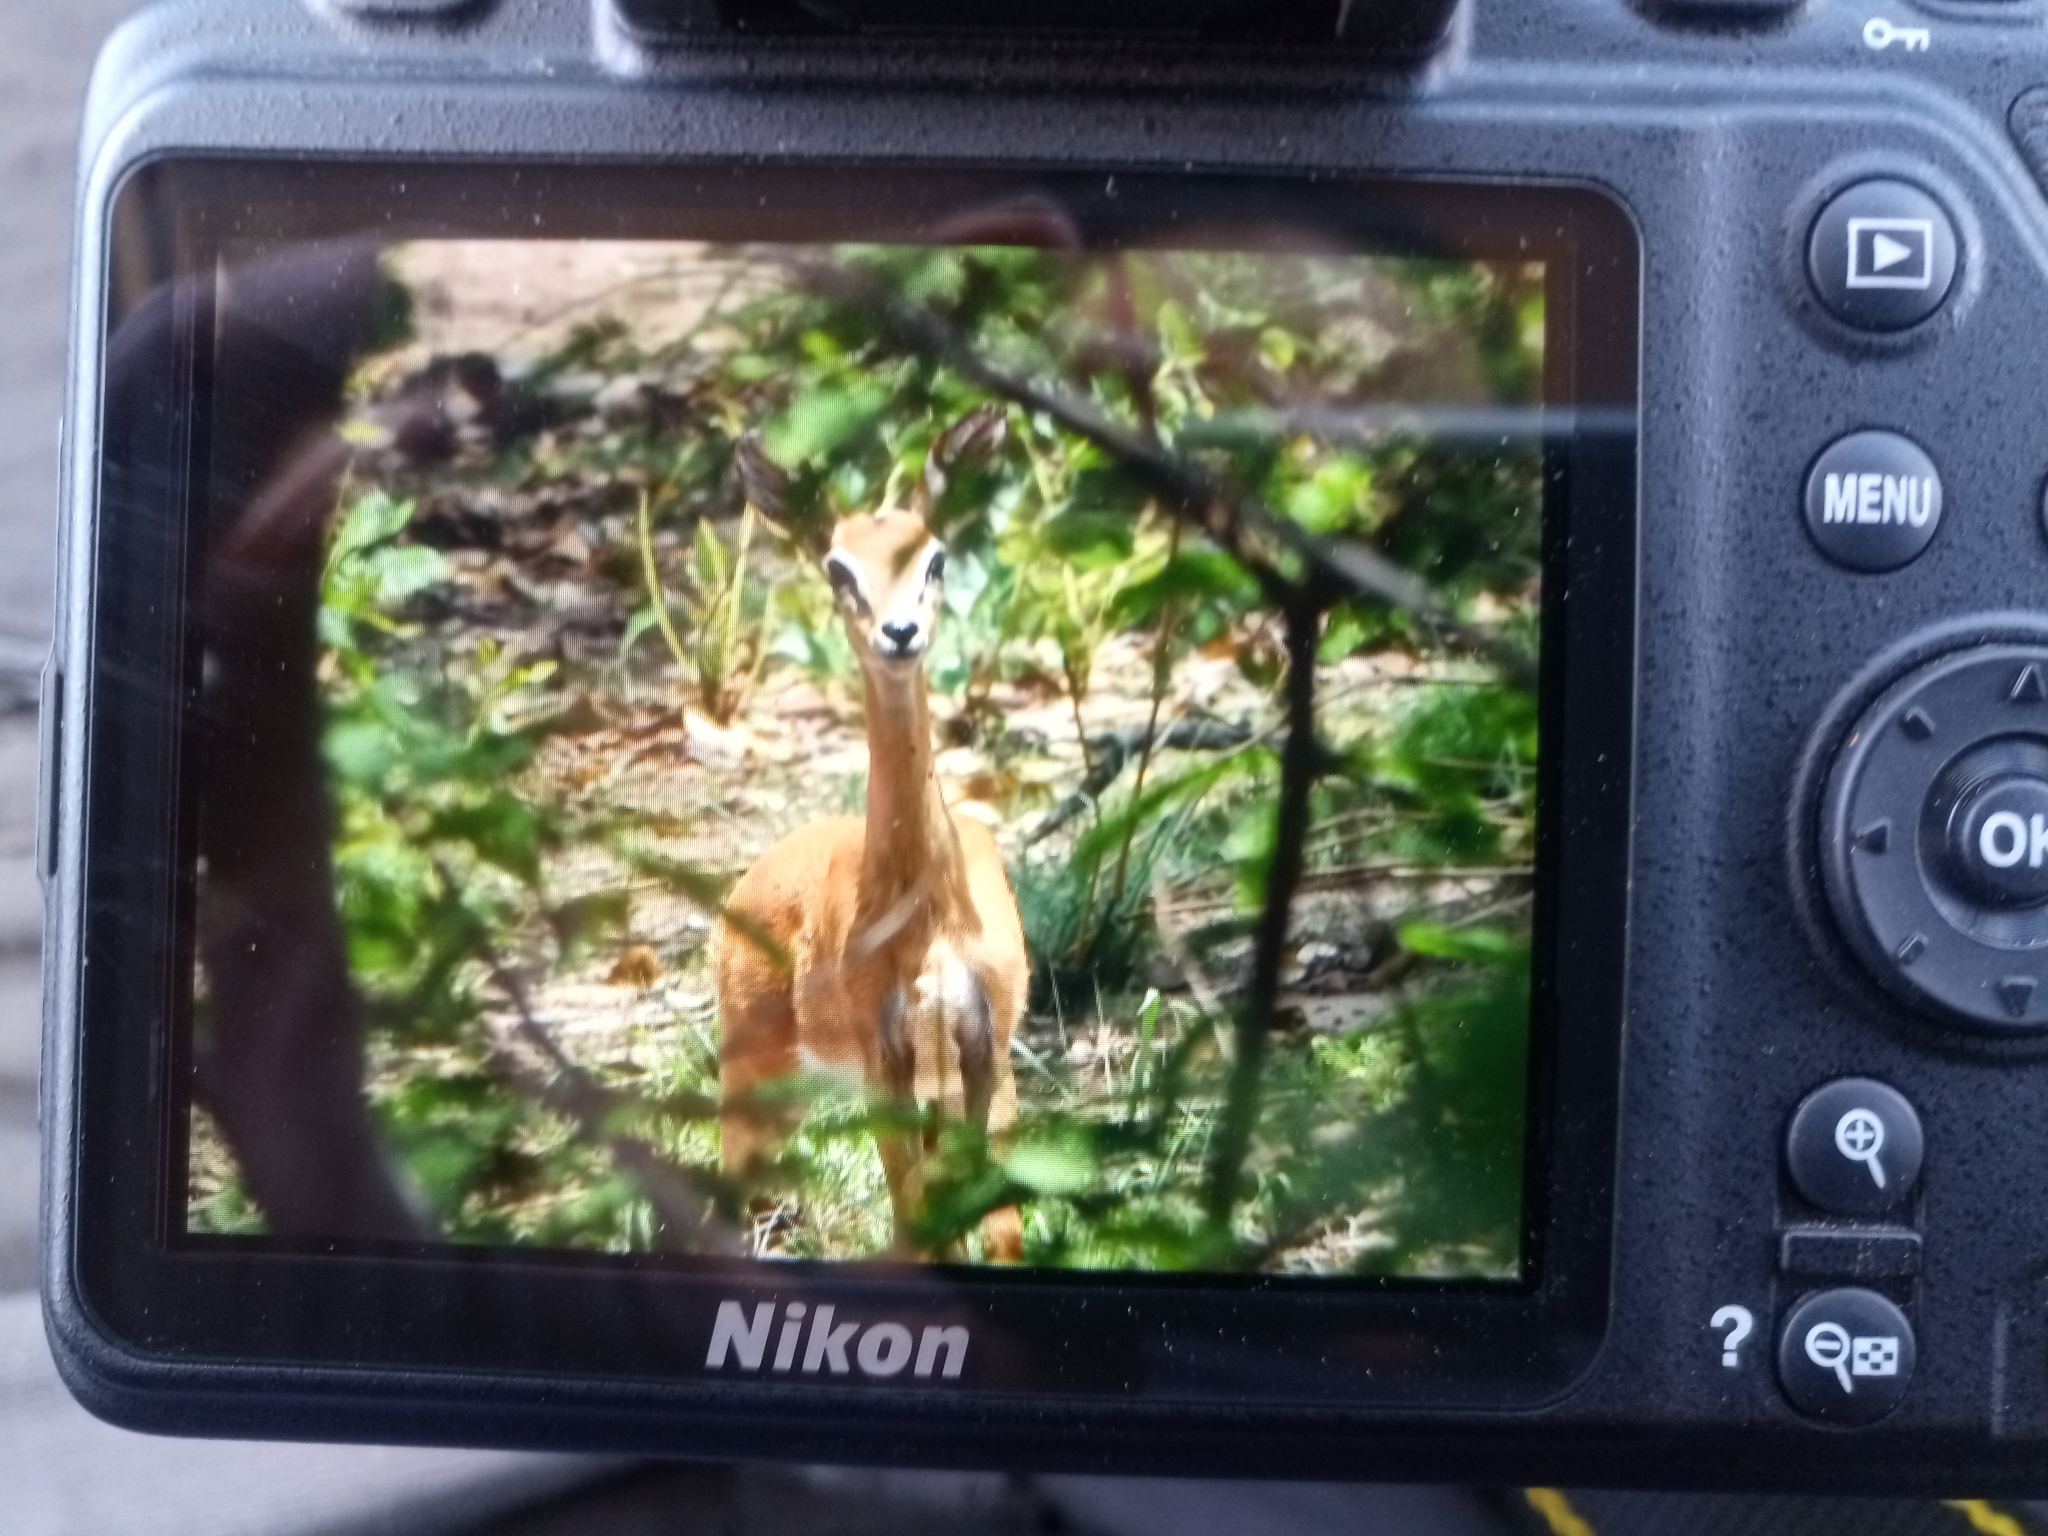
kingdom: Animalia
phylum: Chordata
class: Mammalia
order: Artiodactyla
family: Bovidae
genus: Ourebia
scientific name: Ourebia ourebi
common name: Oribi
